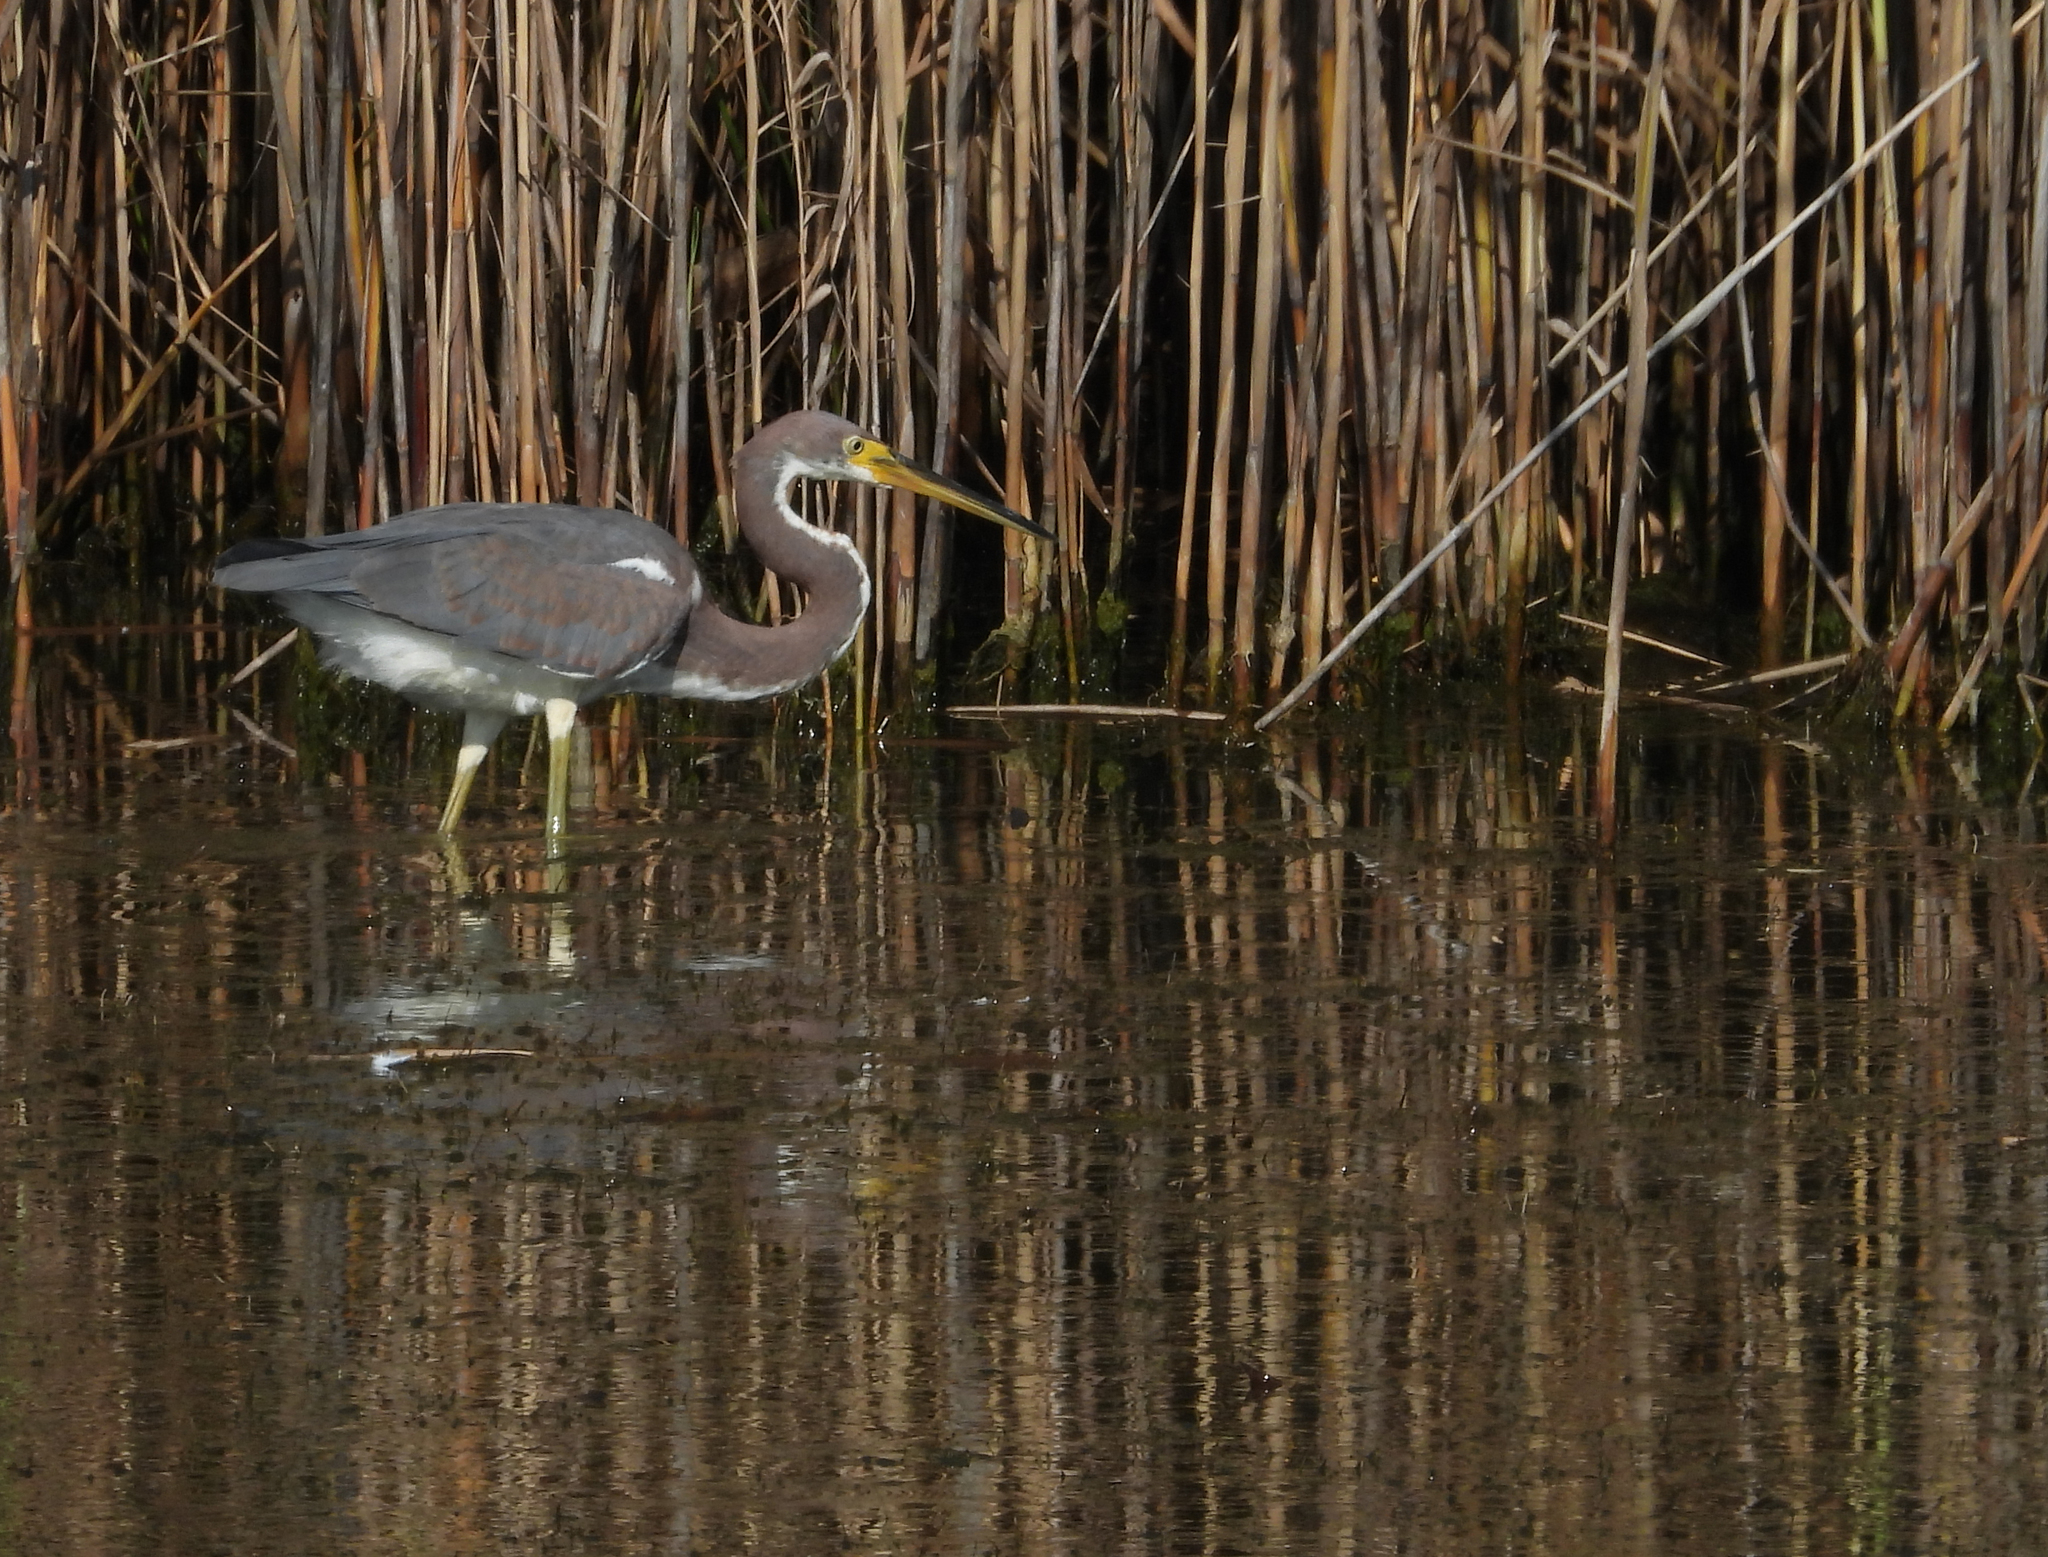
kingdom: Animalia
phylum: Chordata
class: Aves
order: Pelecaniformes
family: Ardeidae
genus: Egretta
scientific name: Egretta tricolor
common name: Tricolored heron
